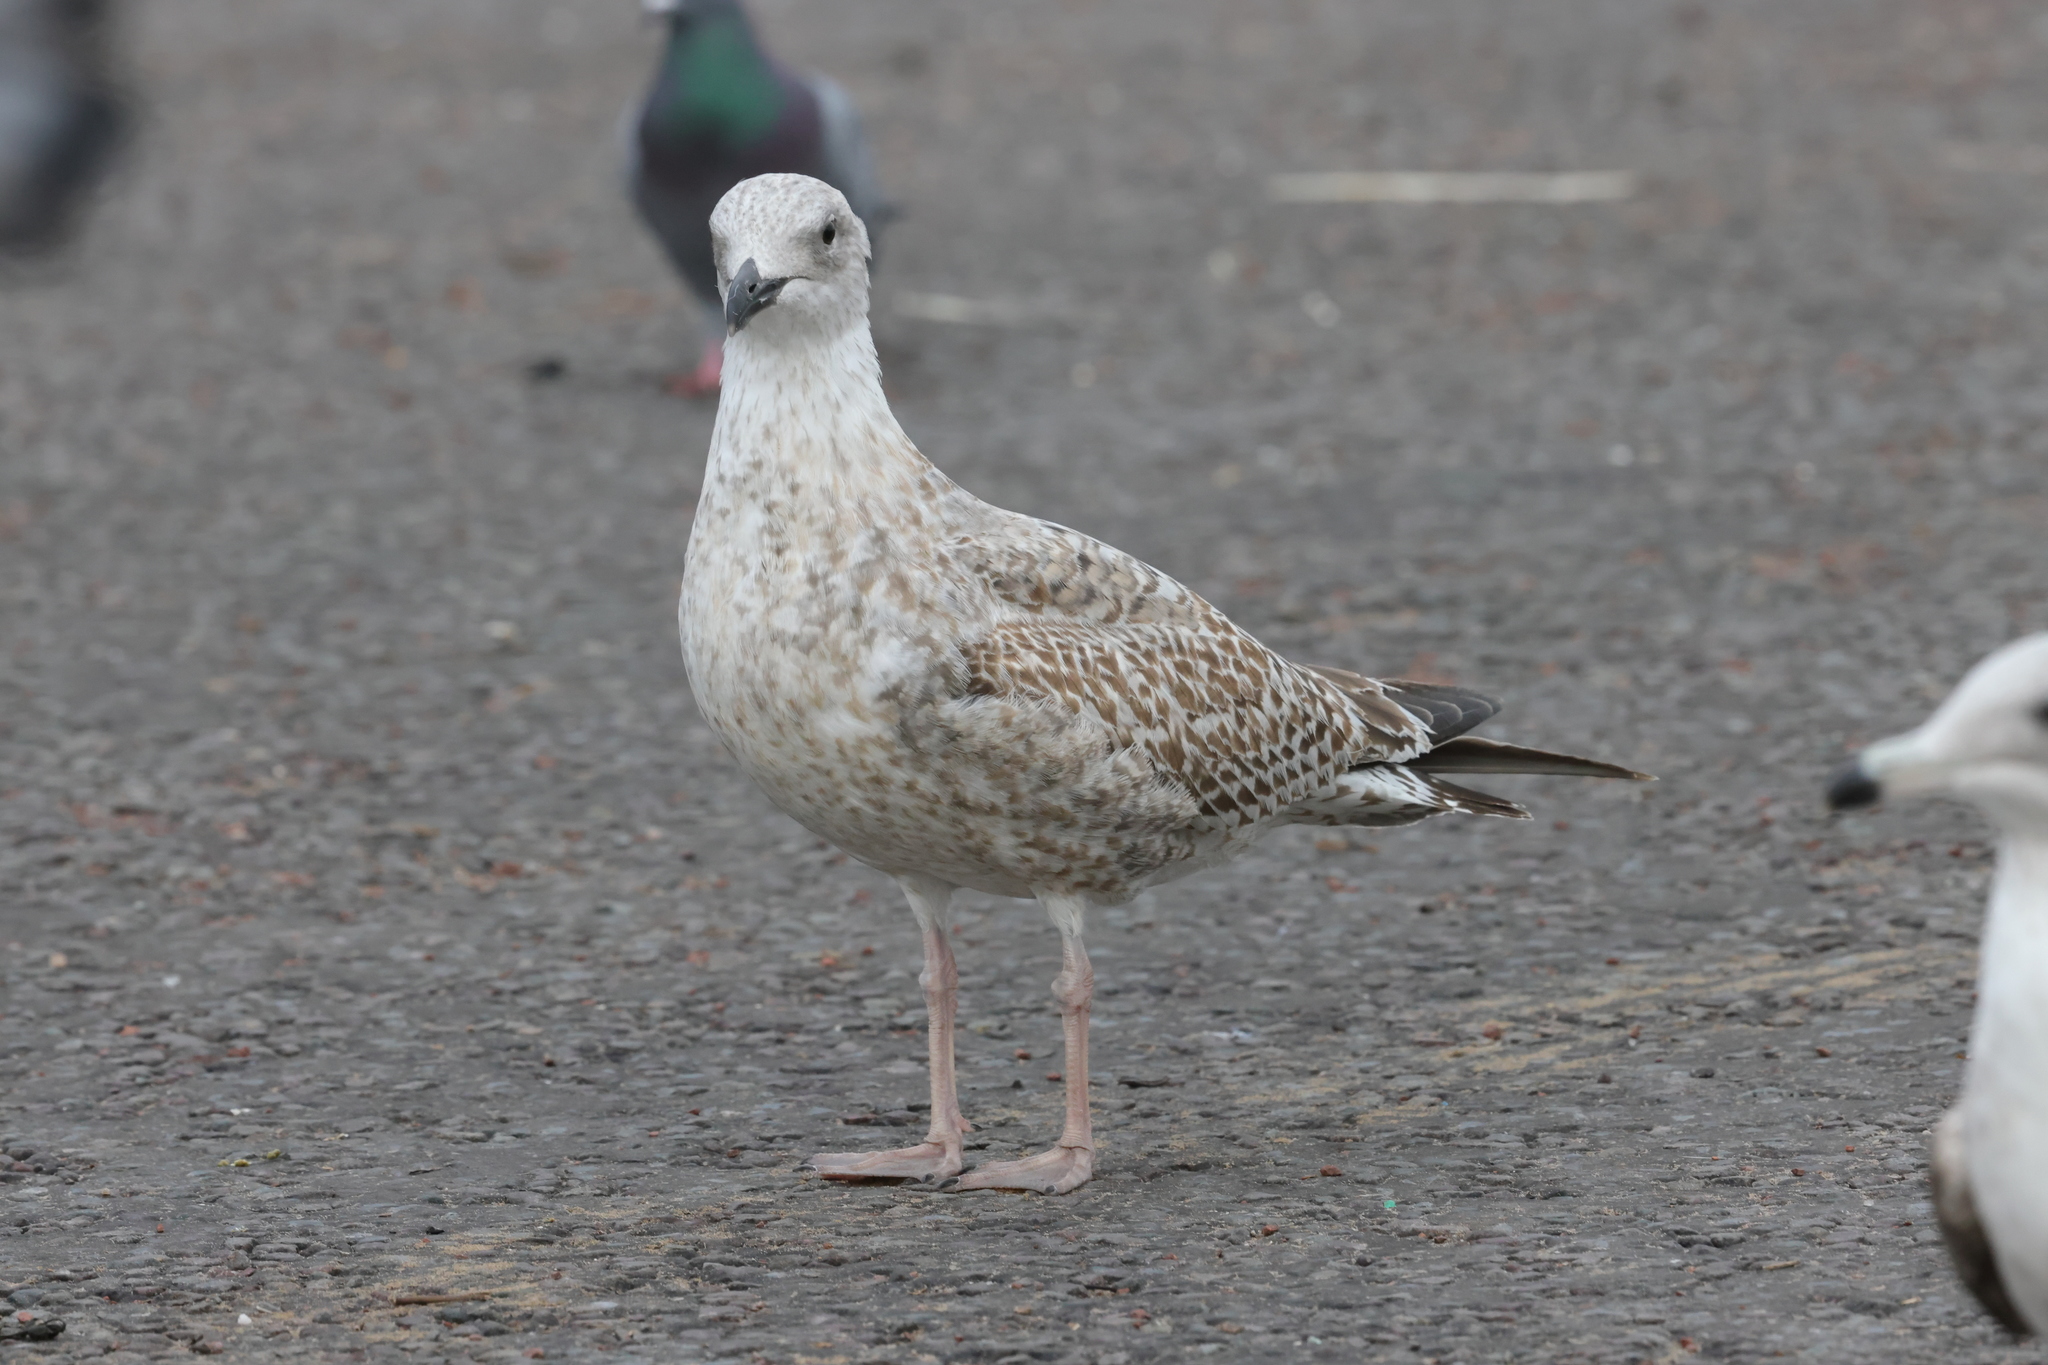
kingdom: Animalia
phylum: Chordata
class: Aves
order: Charadriiformes
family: Laridae
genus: Larus
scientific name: Larus argentatus
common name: Herring gull
